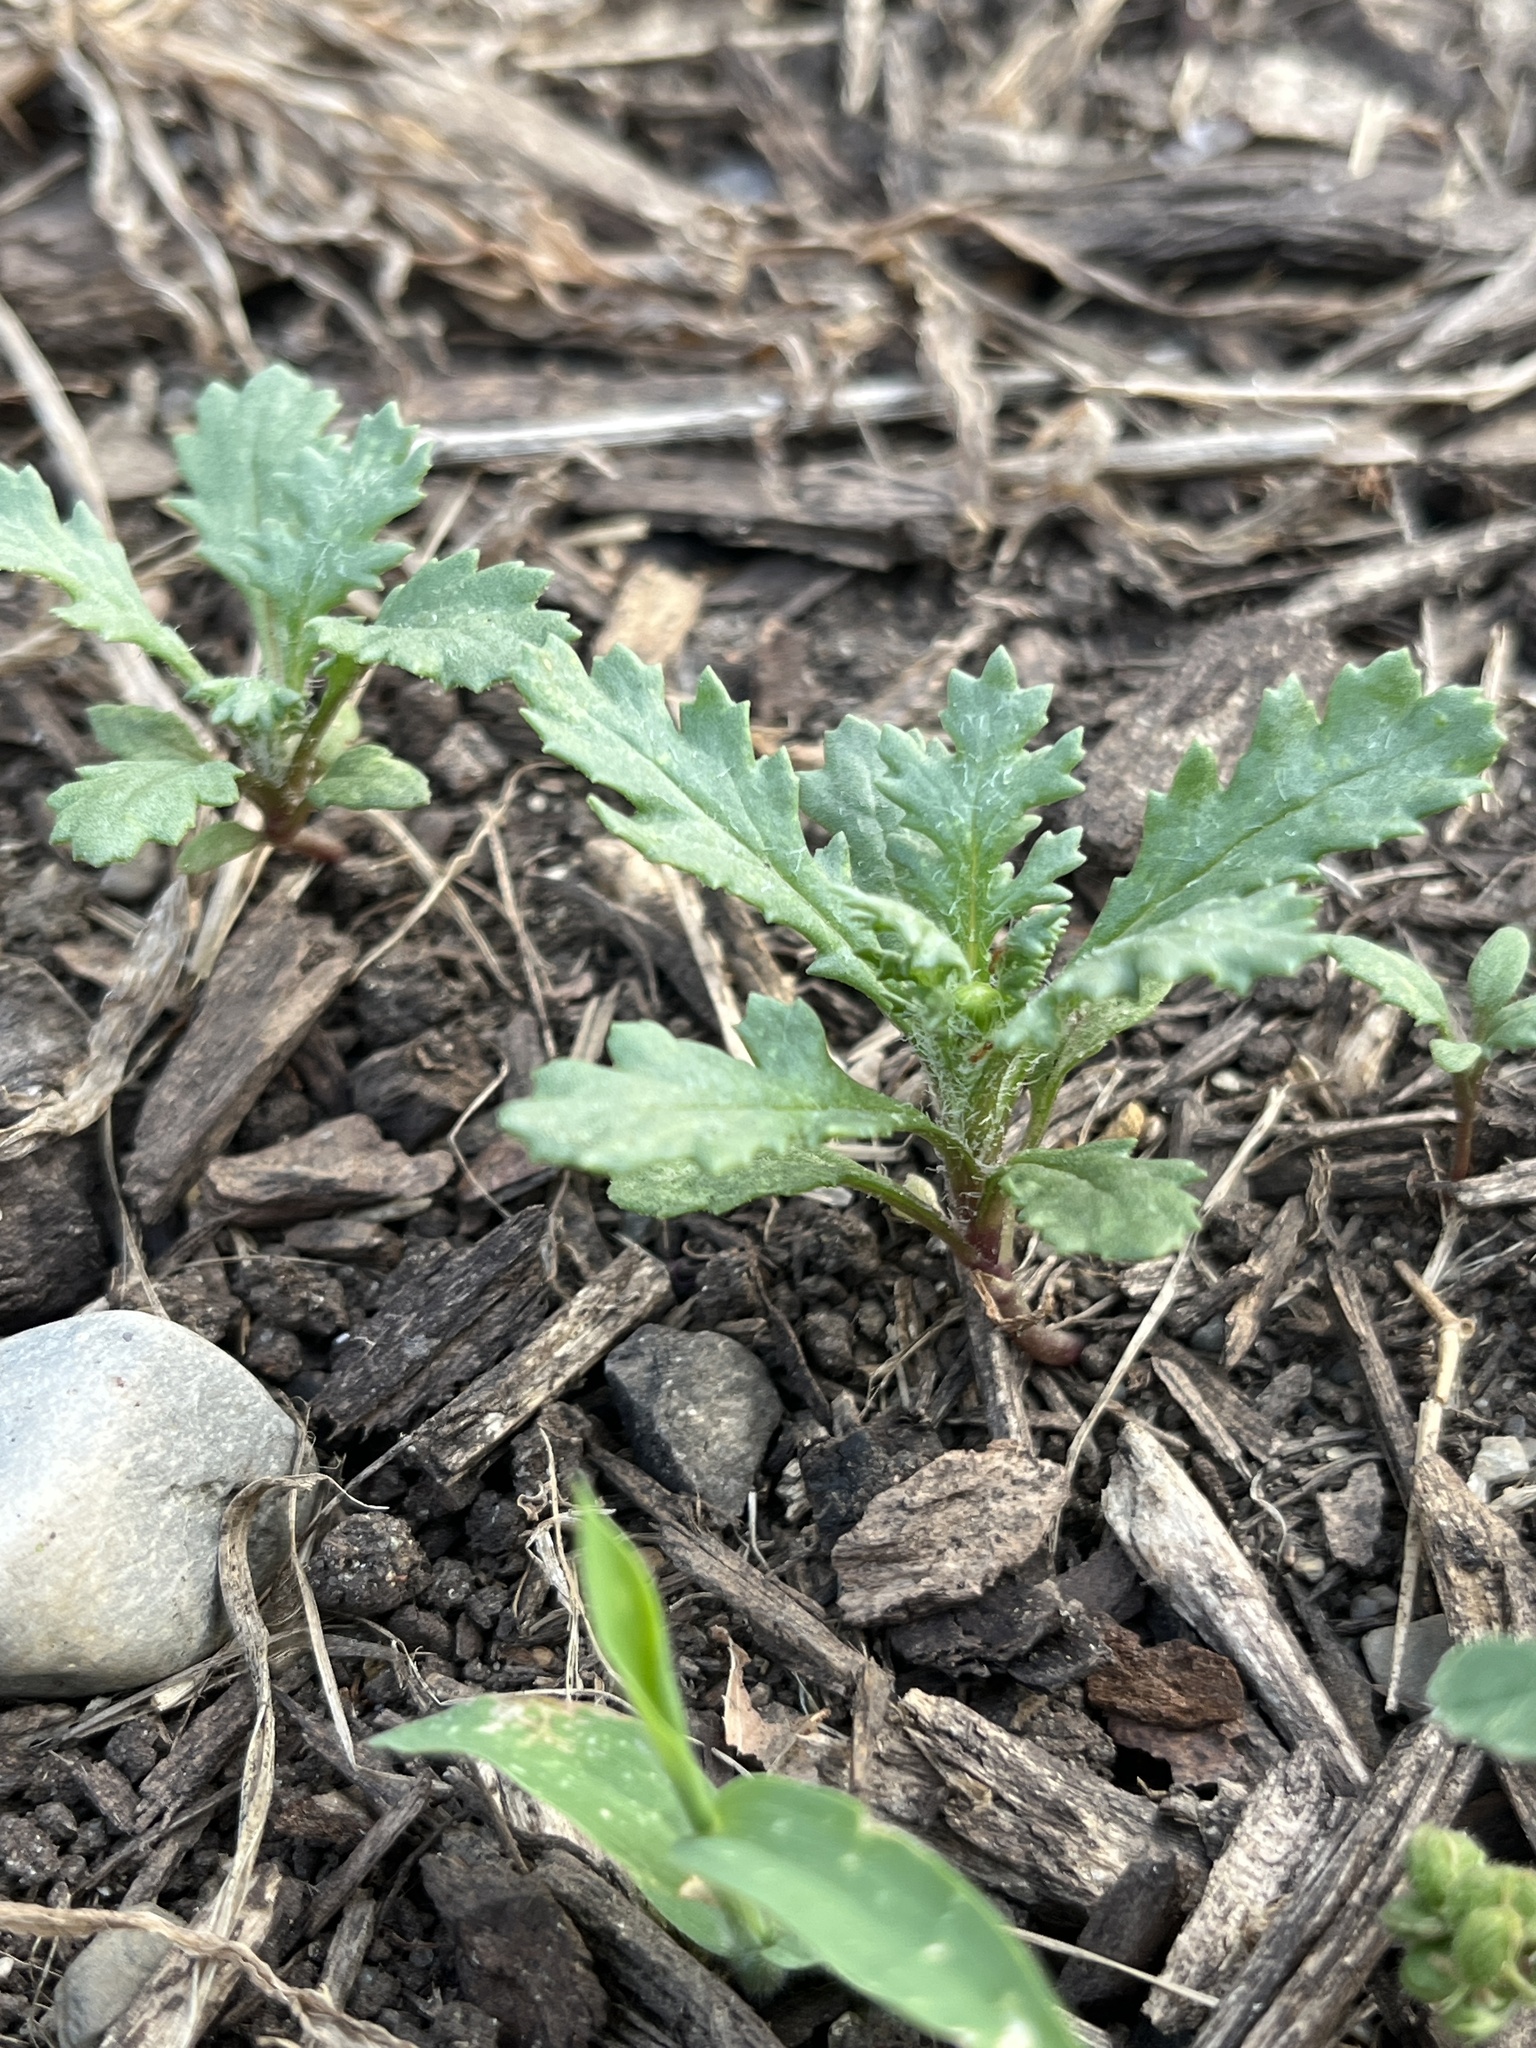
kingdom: Plantae
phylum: Tracheophyta
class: Magnoliopsida
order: Asterales
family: Asteraceae
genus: Senecio
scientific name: Senecio vulgaris
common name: Old-man-in-the-spring
